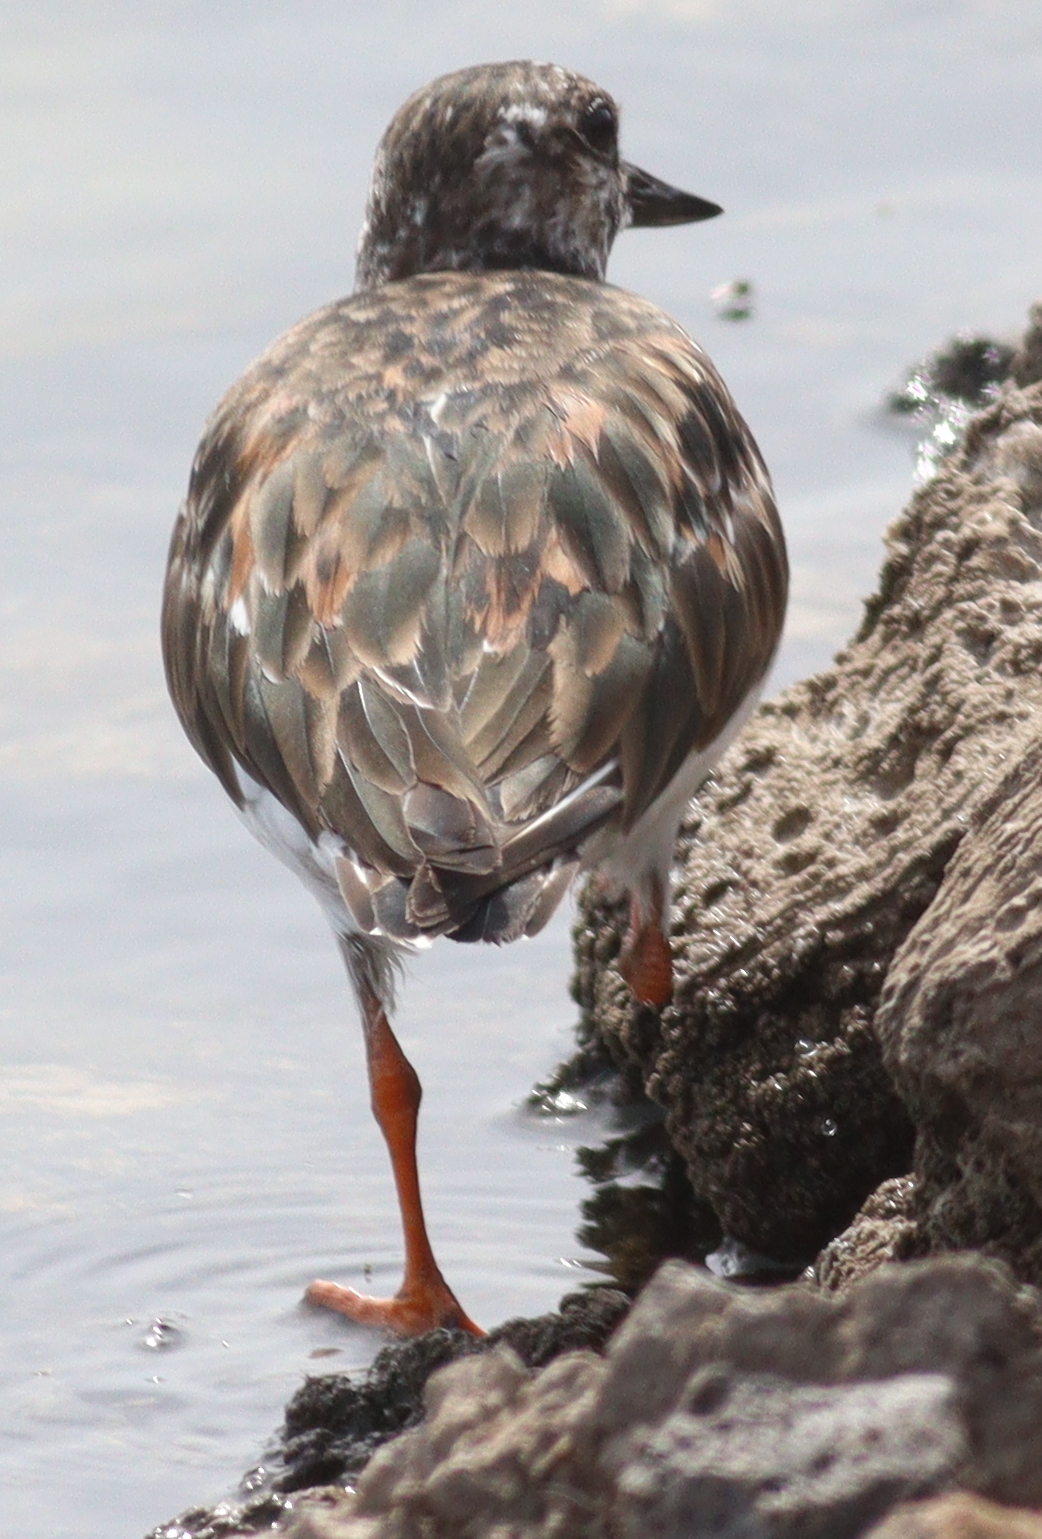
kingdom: Animalia
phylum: Chordata
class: Aves
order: Charadriiformes
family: Scolopacidae
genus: Arenaria
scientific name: Arenaria interpres
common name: Ruddy turnstone
